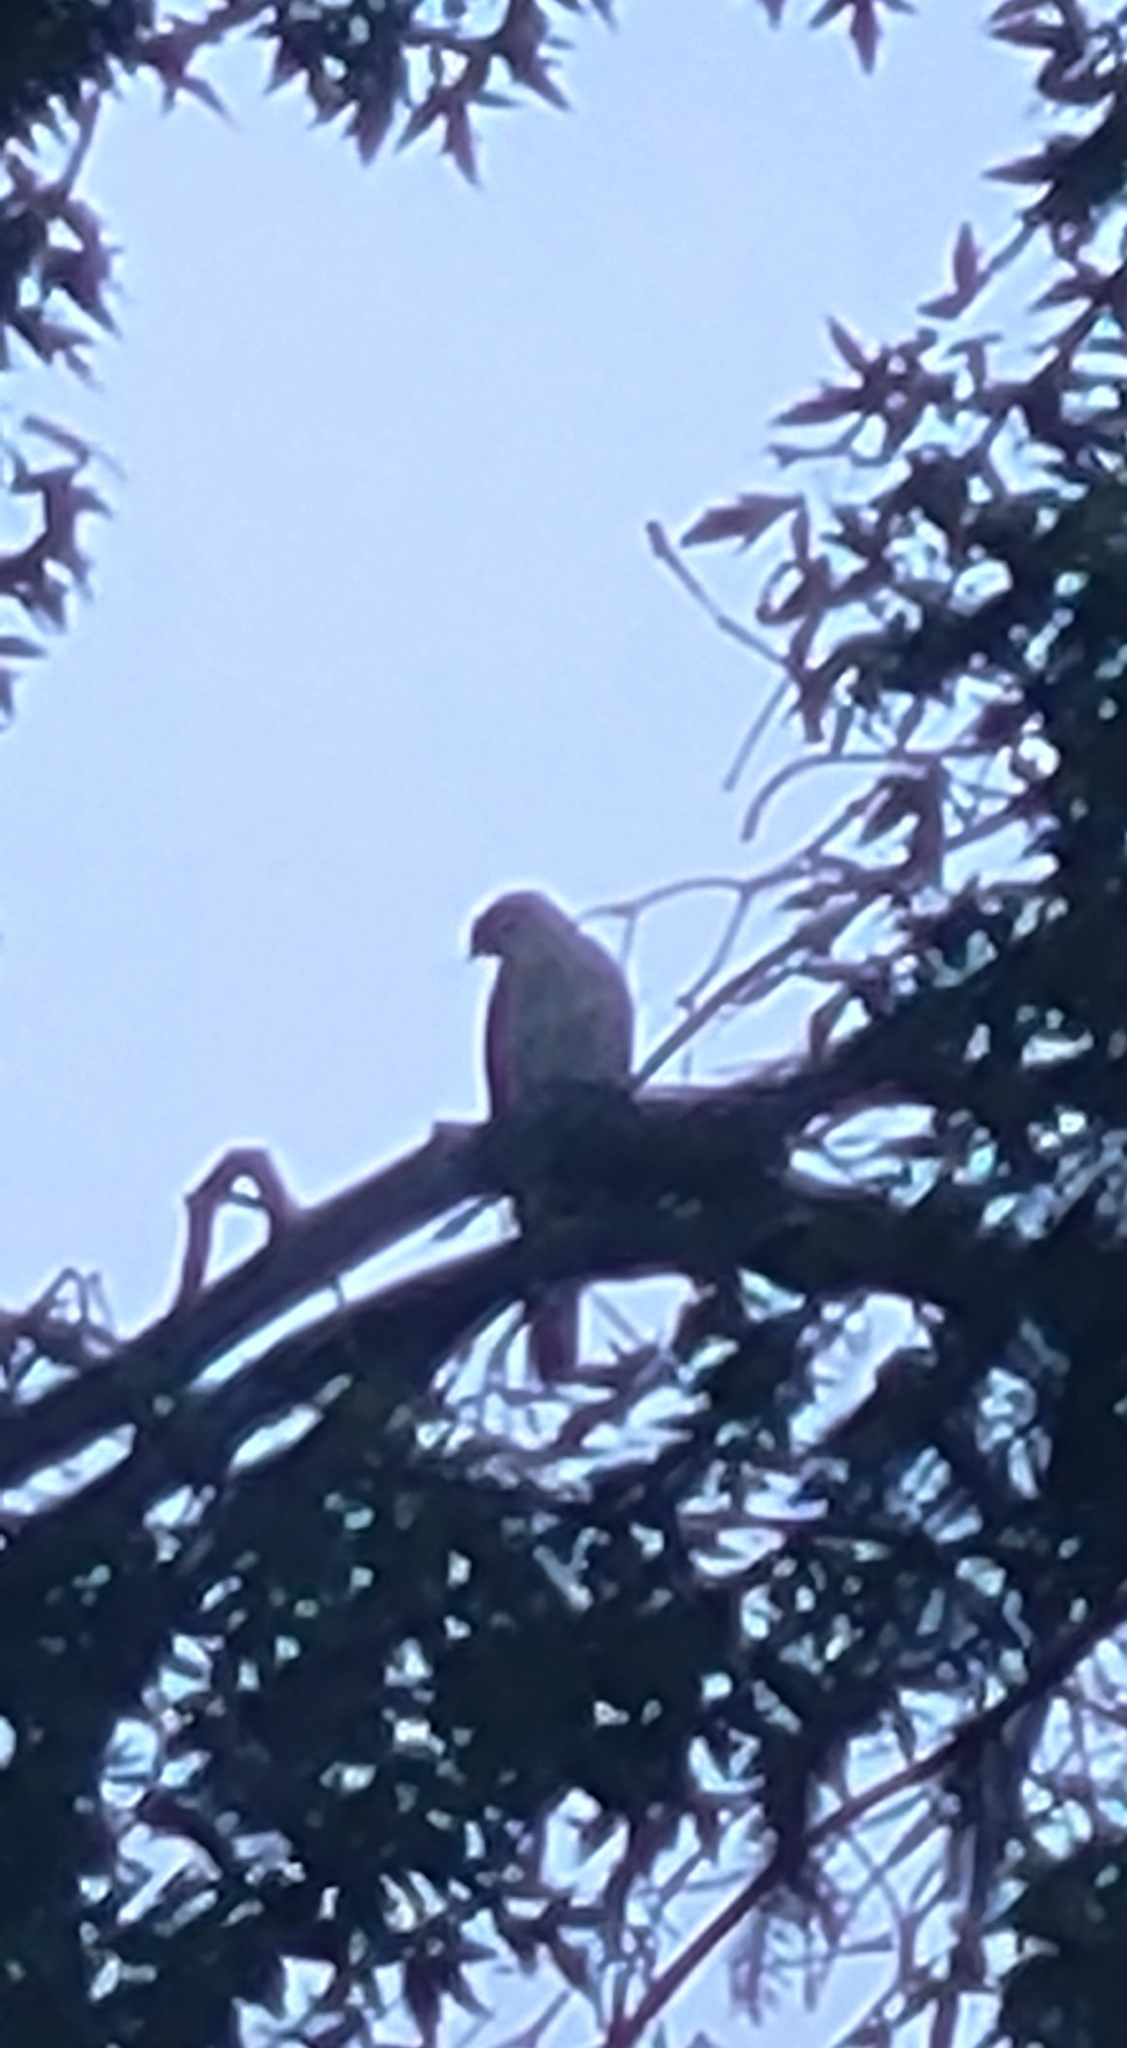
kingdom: Animalia
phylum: Chordata
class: Aves
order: Accipitriformes
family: Accipitridae
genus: Accipiter
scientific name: Accipiter cooperii
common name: Cooper's hawk
